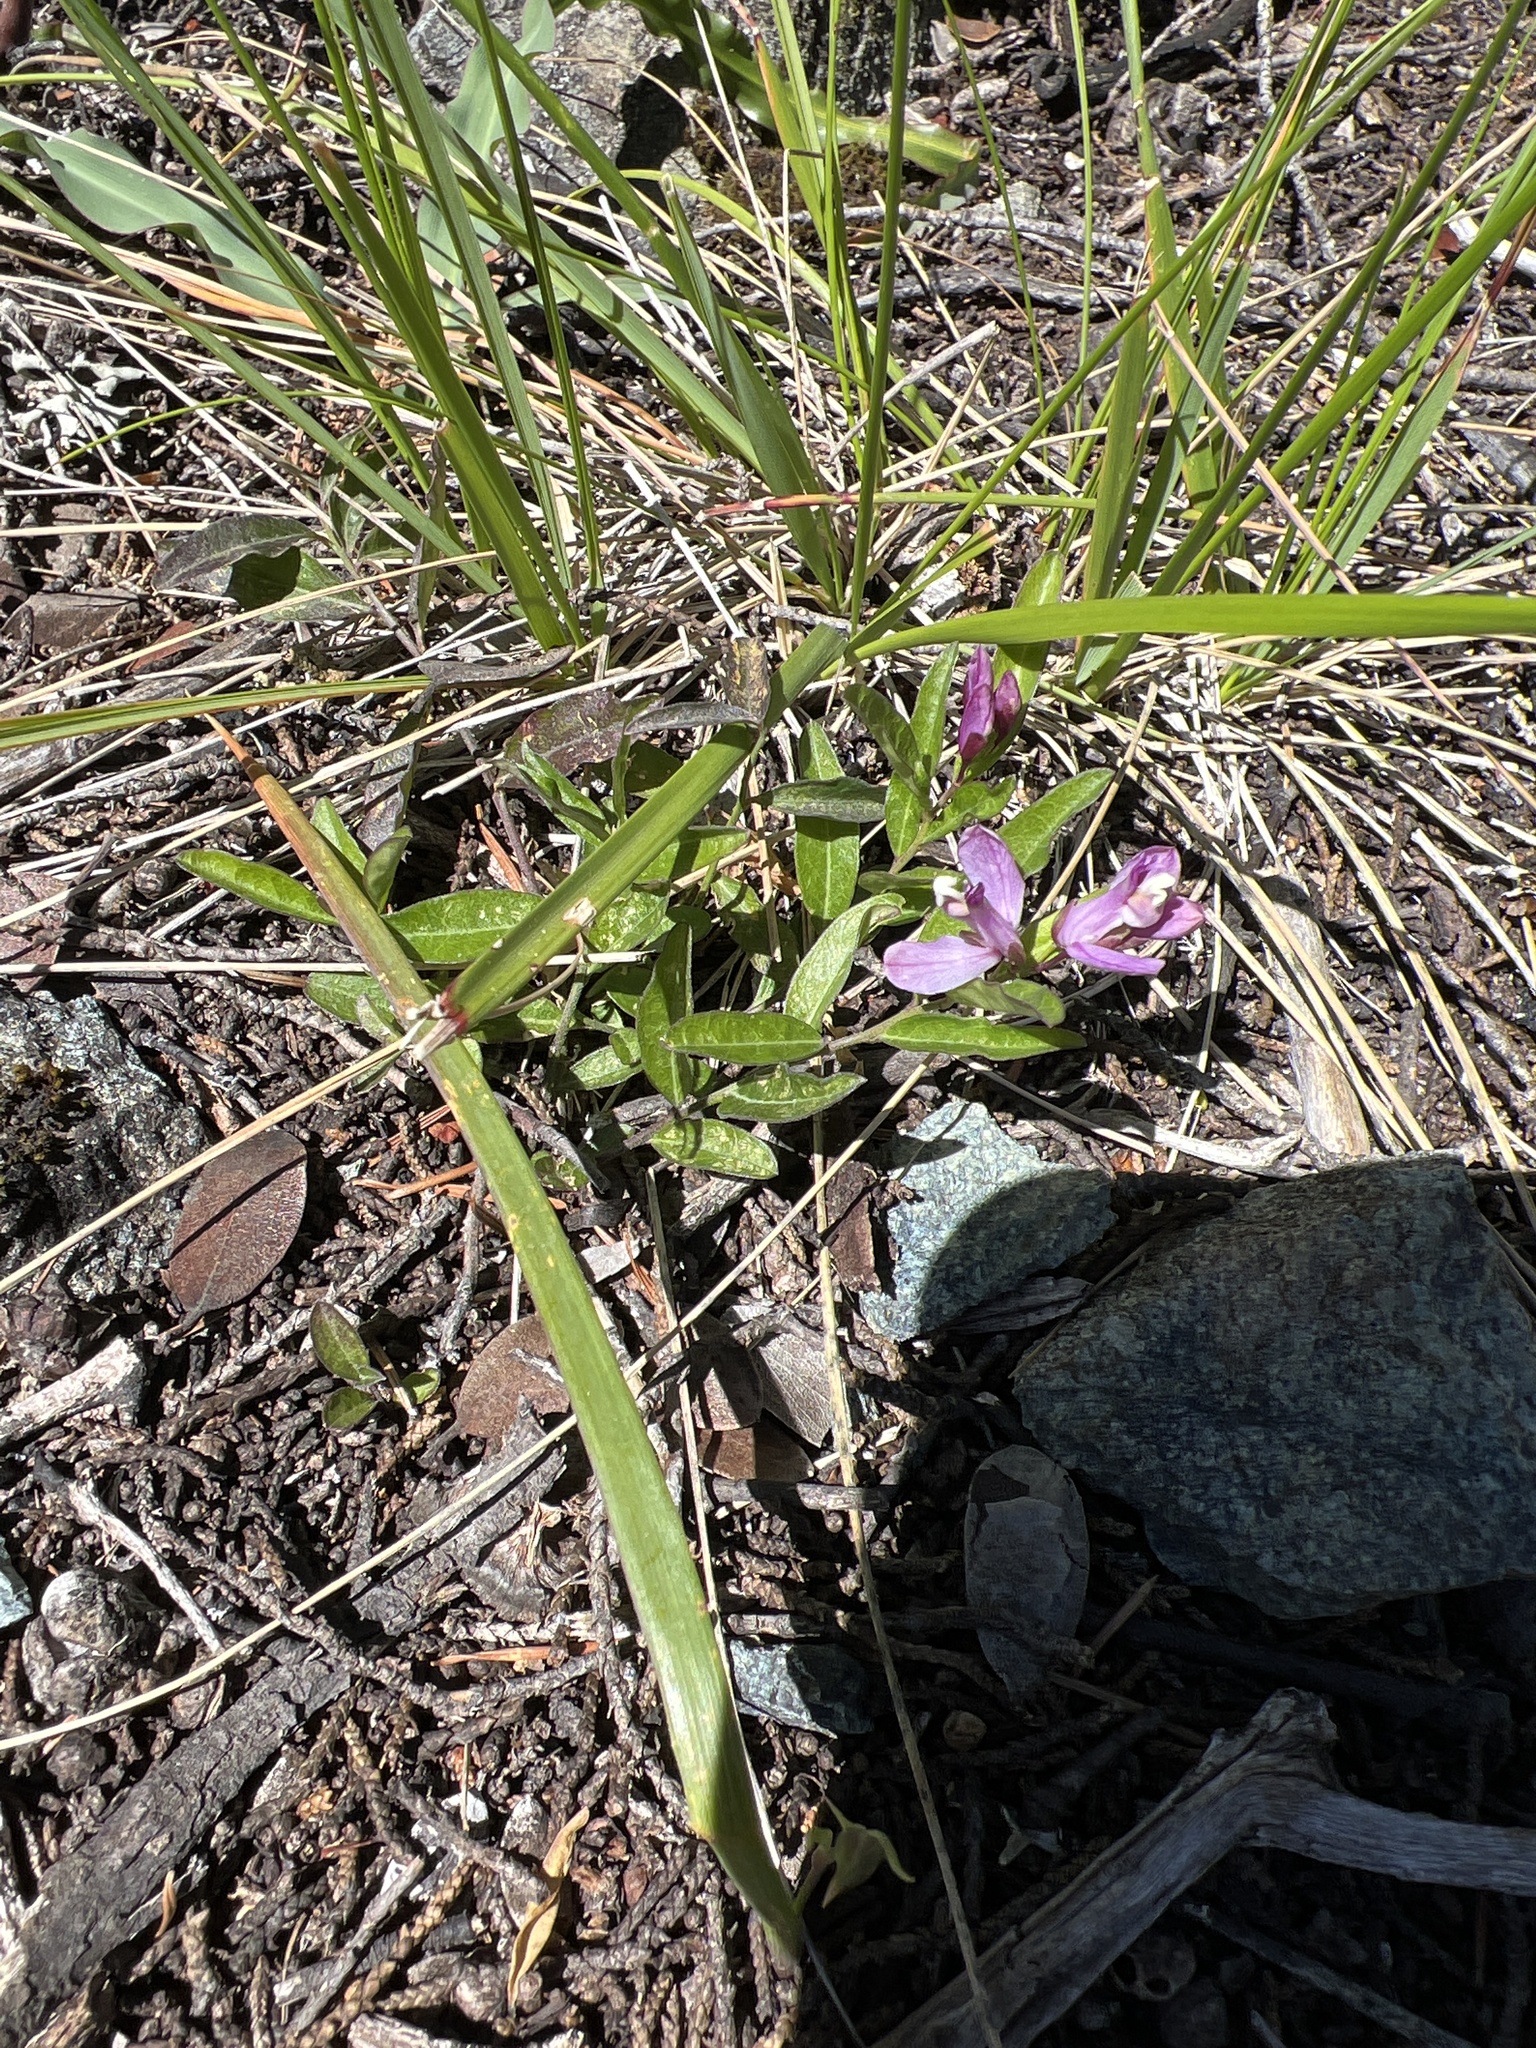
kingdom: Plantae
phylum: Tracheophyta
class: Magnoliopsida
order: Fabales
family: Polygalaceae
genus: Rhinotropis
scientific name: Rhinotropis californica
